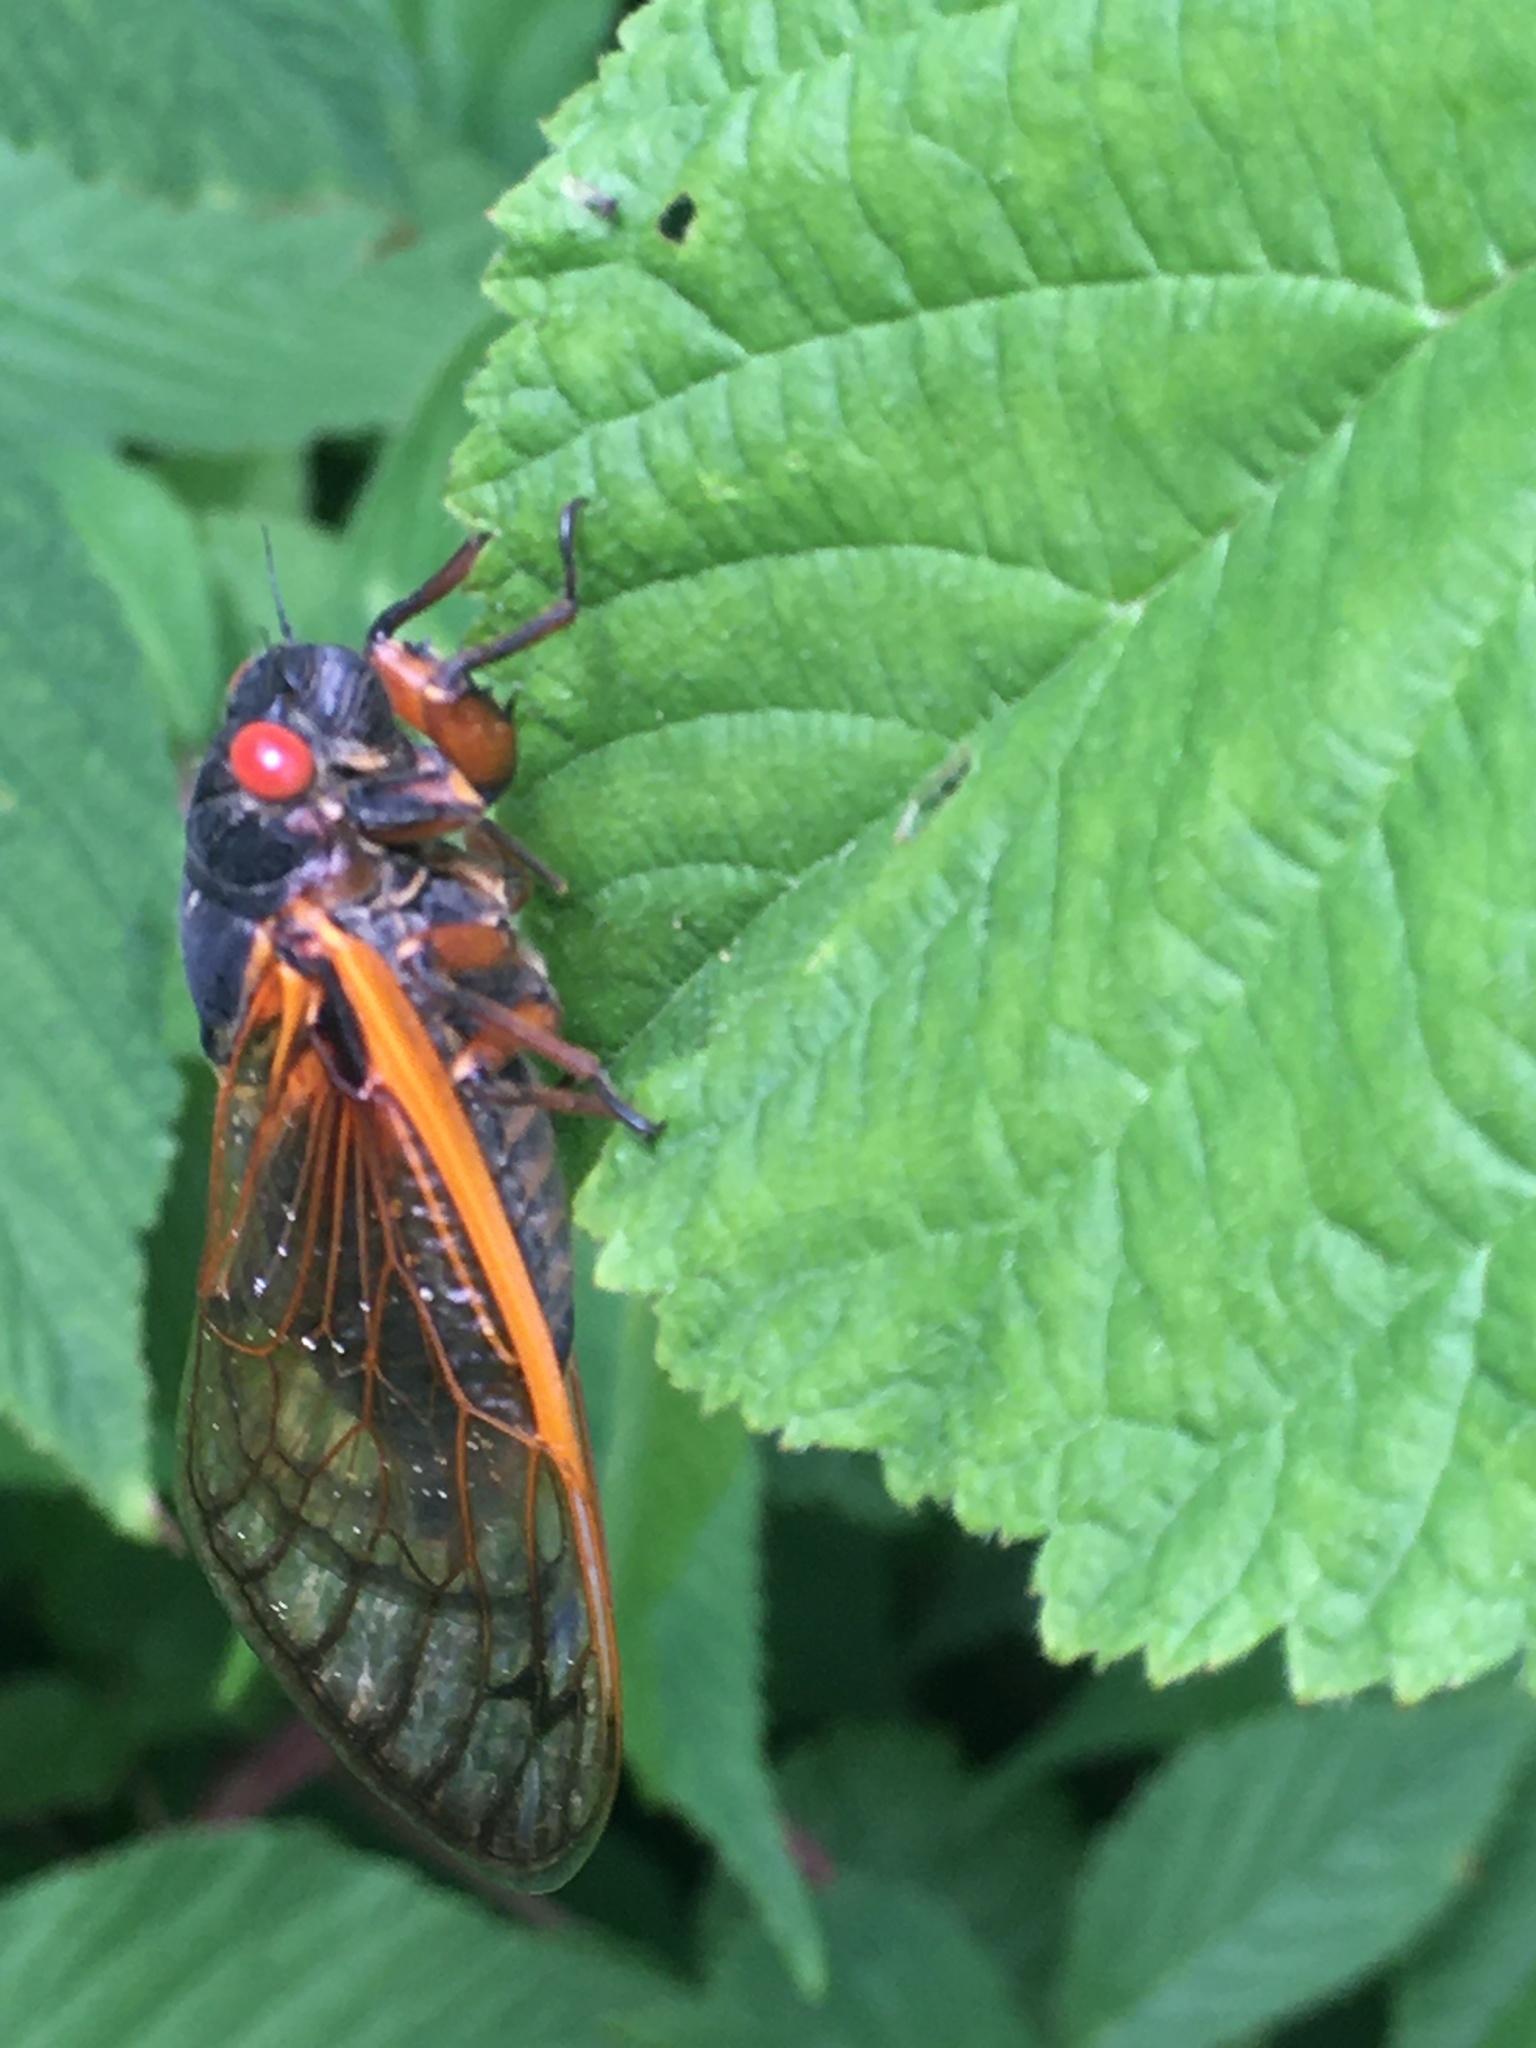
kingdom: Animalia
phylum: Arthropoda
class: Insecta
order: Hemiptera
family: Cicadidae
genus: Magicicada
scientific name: Magicicada septendecim
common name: Periodical cicada
